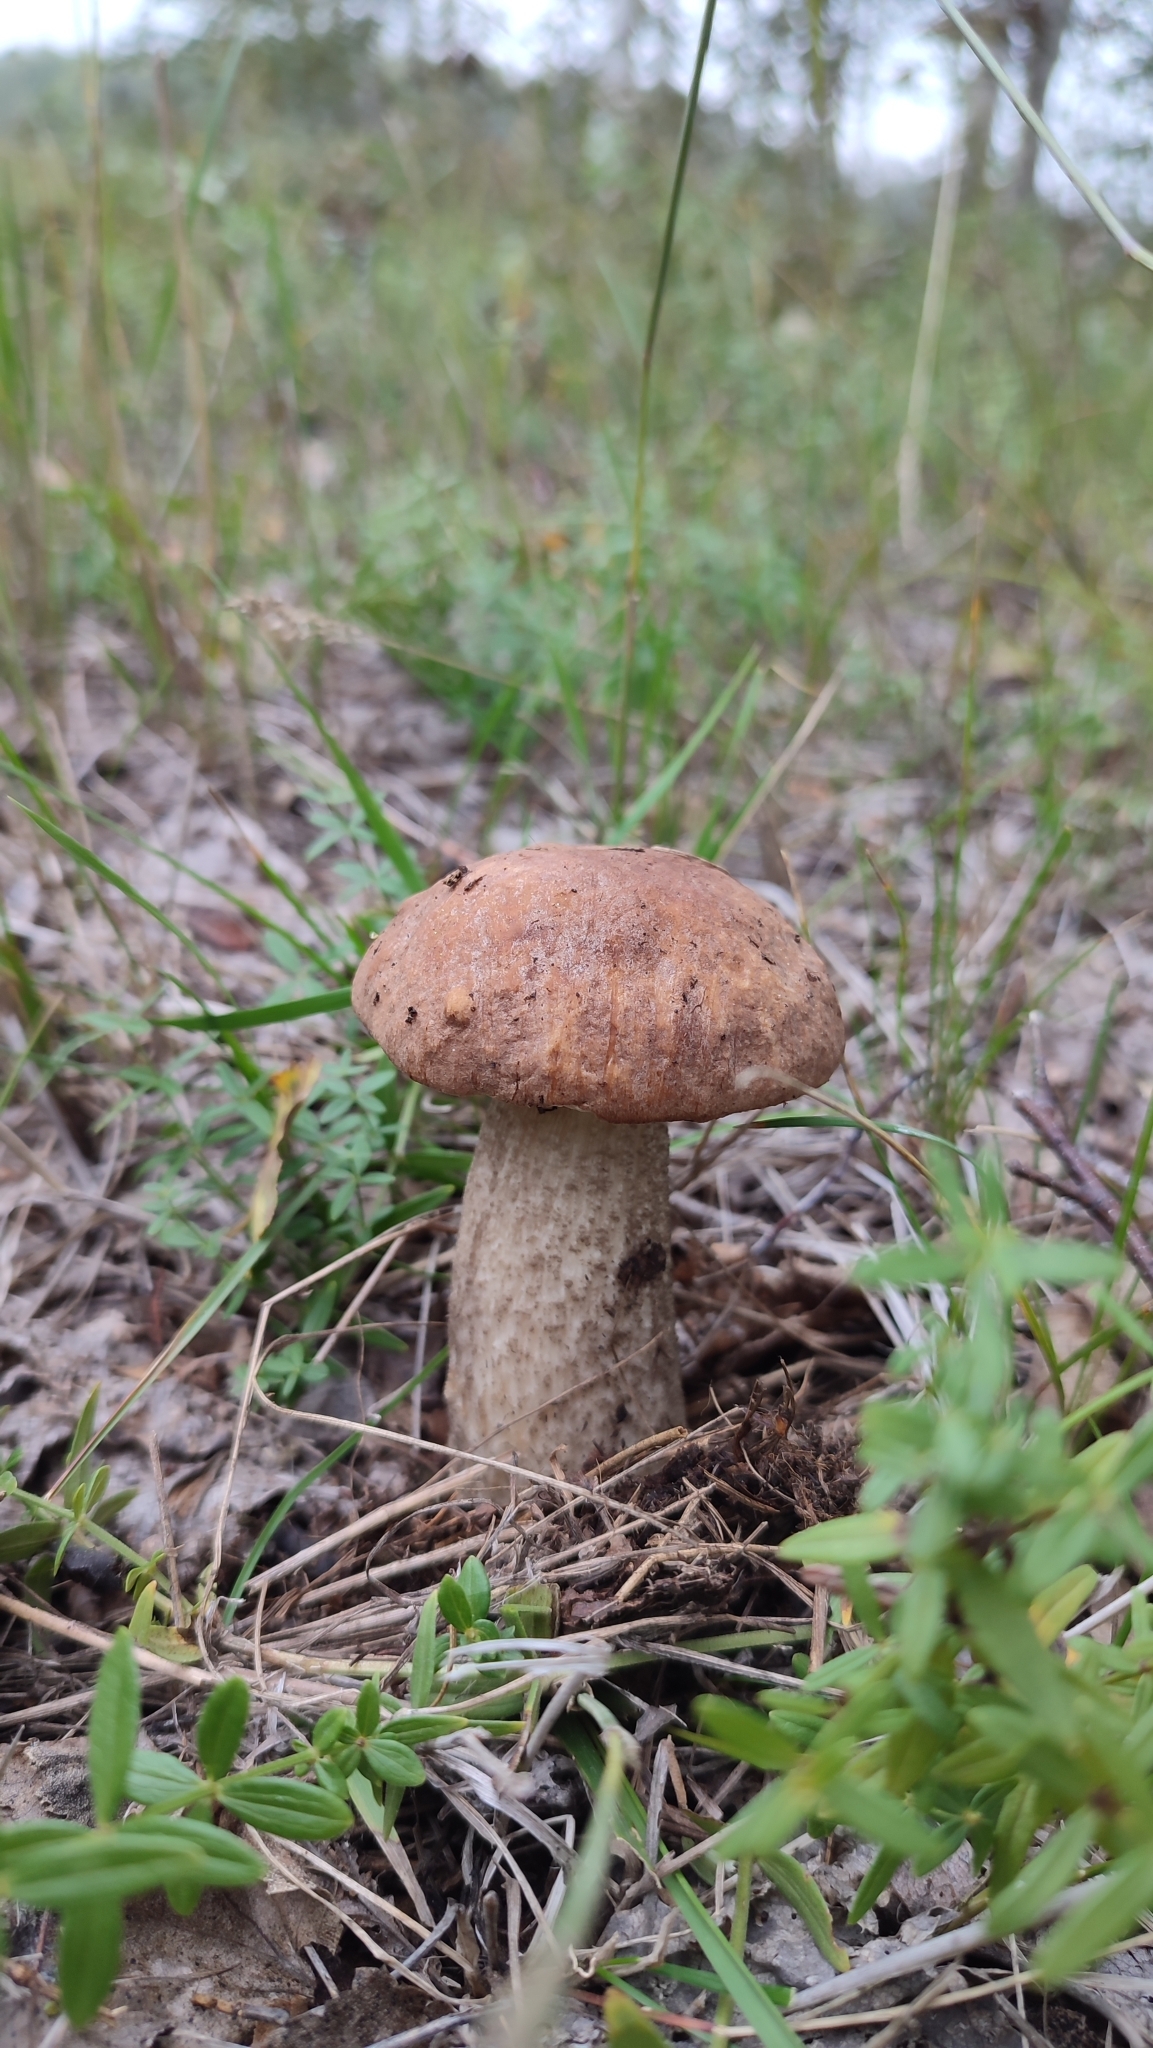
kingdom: Fungi
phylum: Basidiomycota
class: Agaricomycetes
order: Boletales
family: Boletaceae
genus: Leccinum
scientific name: Leccinum scabrum
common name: Blushing bolete
